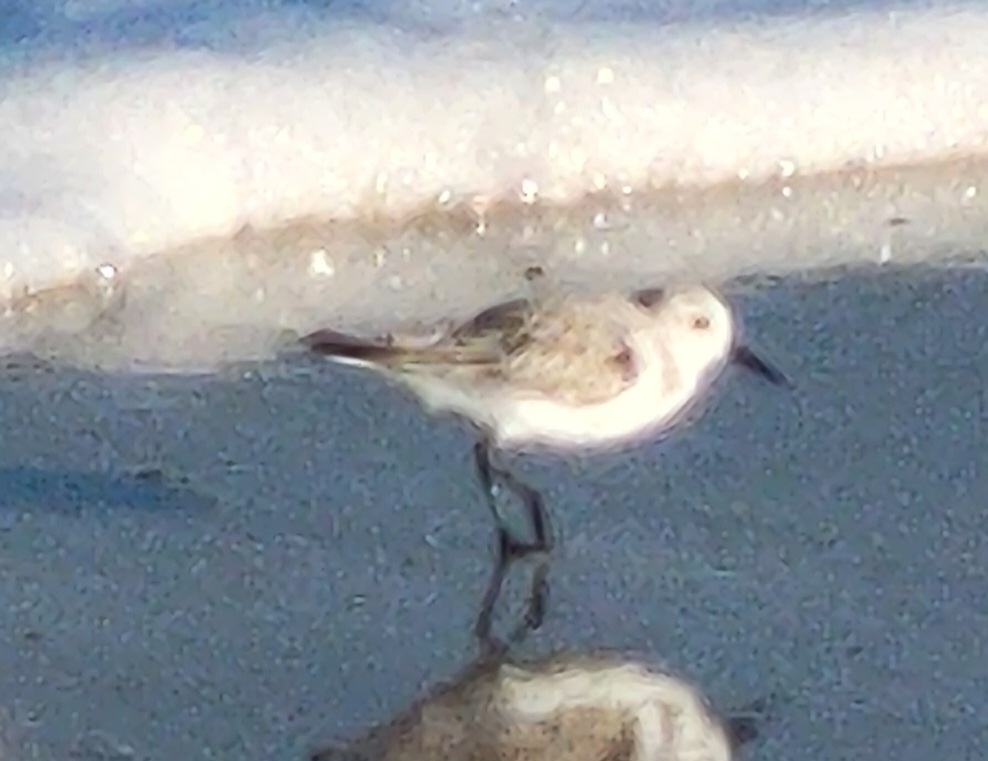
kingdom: Animalia
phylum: Chordata
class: Aves
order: Charadriiformes
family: Scolopacidae
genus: Calidris
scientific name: Calidris alba
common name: Sanderling
